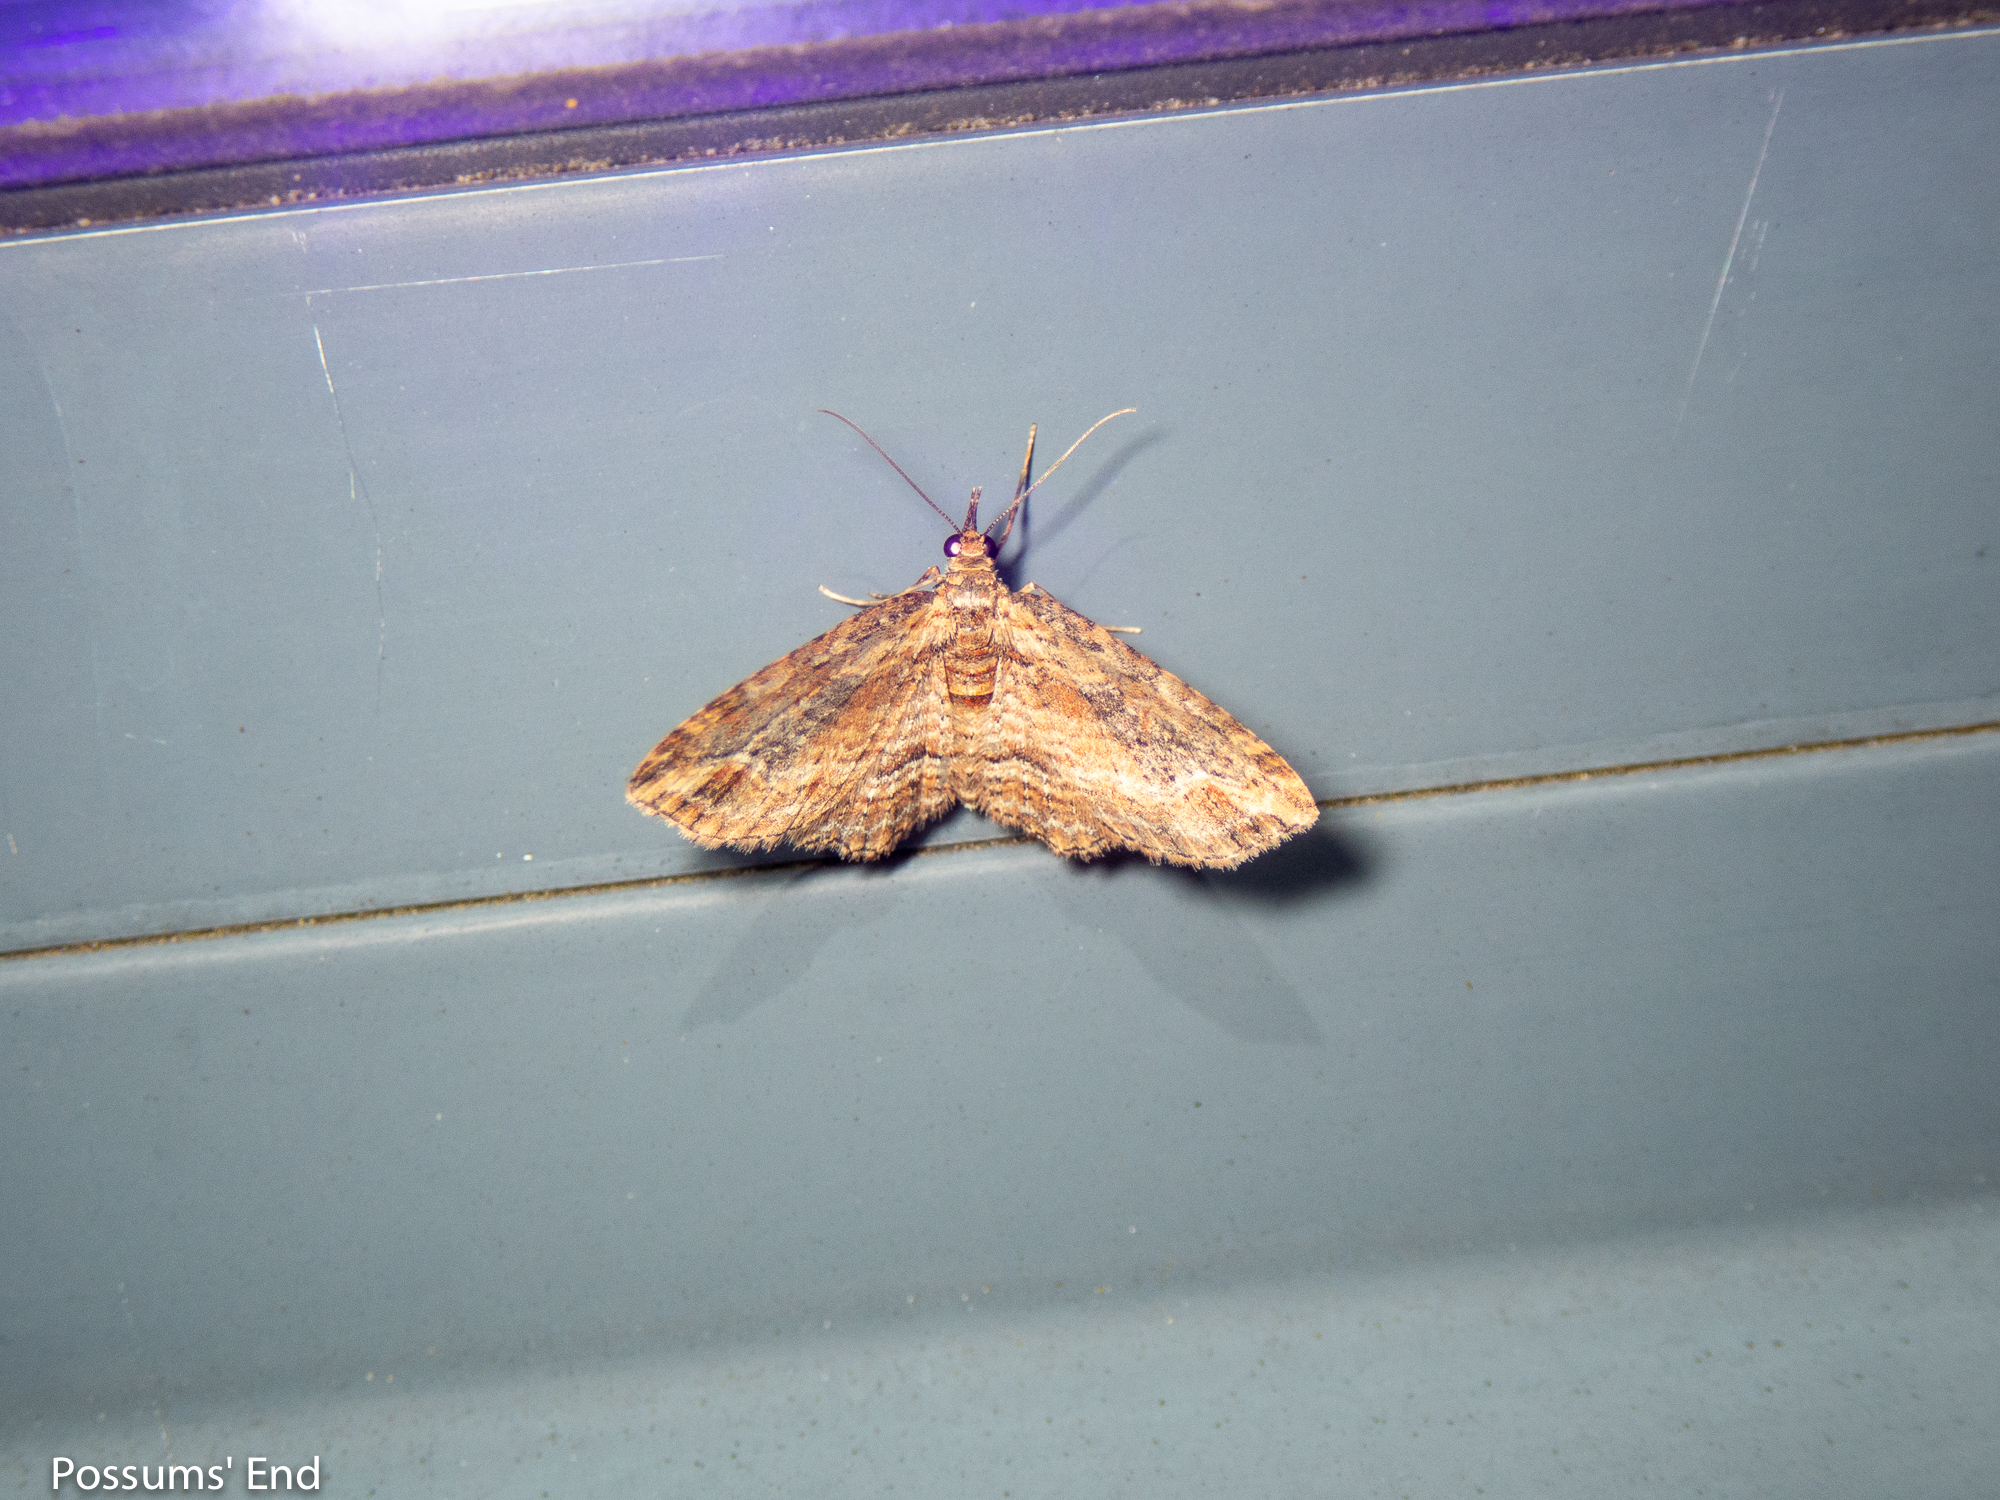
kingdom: Animalia
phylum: Arthropoda
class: Insecta
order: Lepidoptera
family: Geometridae
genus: Chloroclystis
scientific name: Chloroclystis filata
